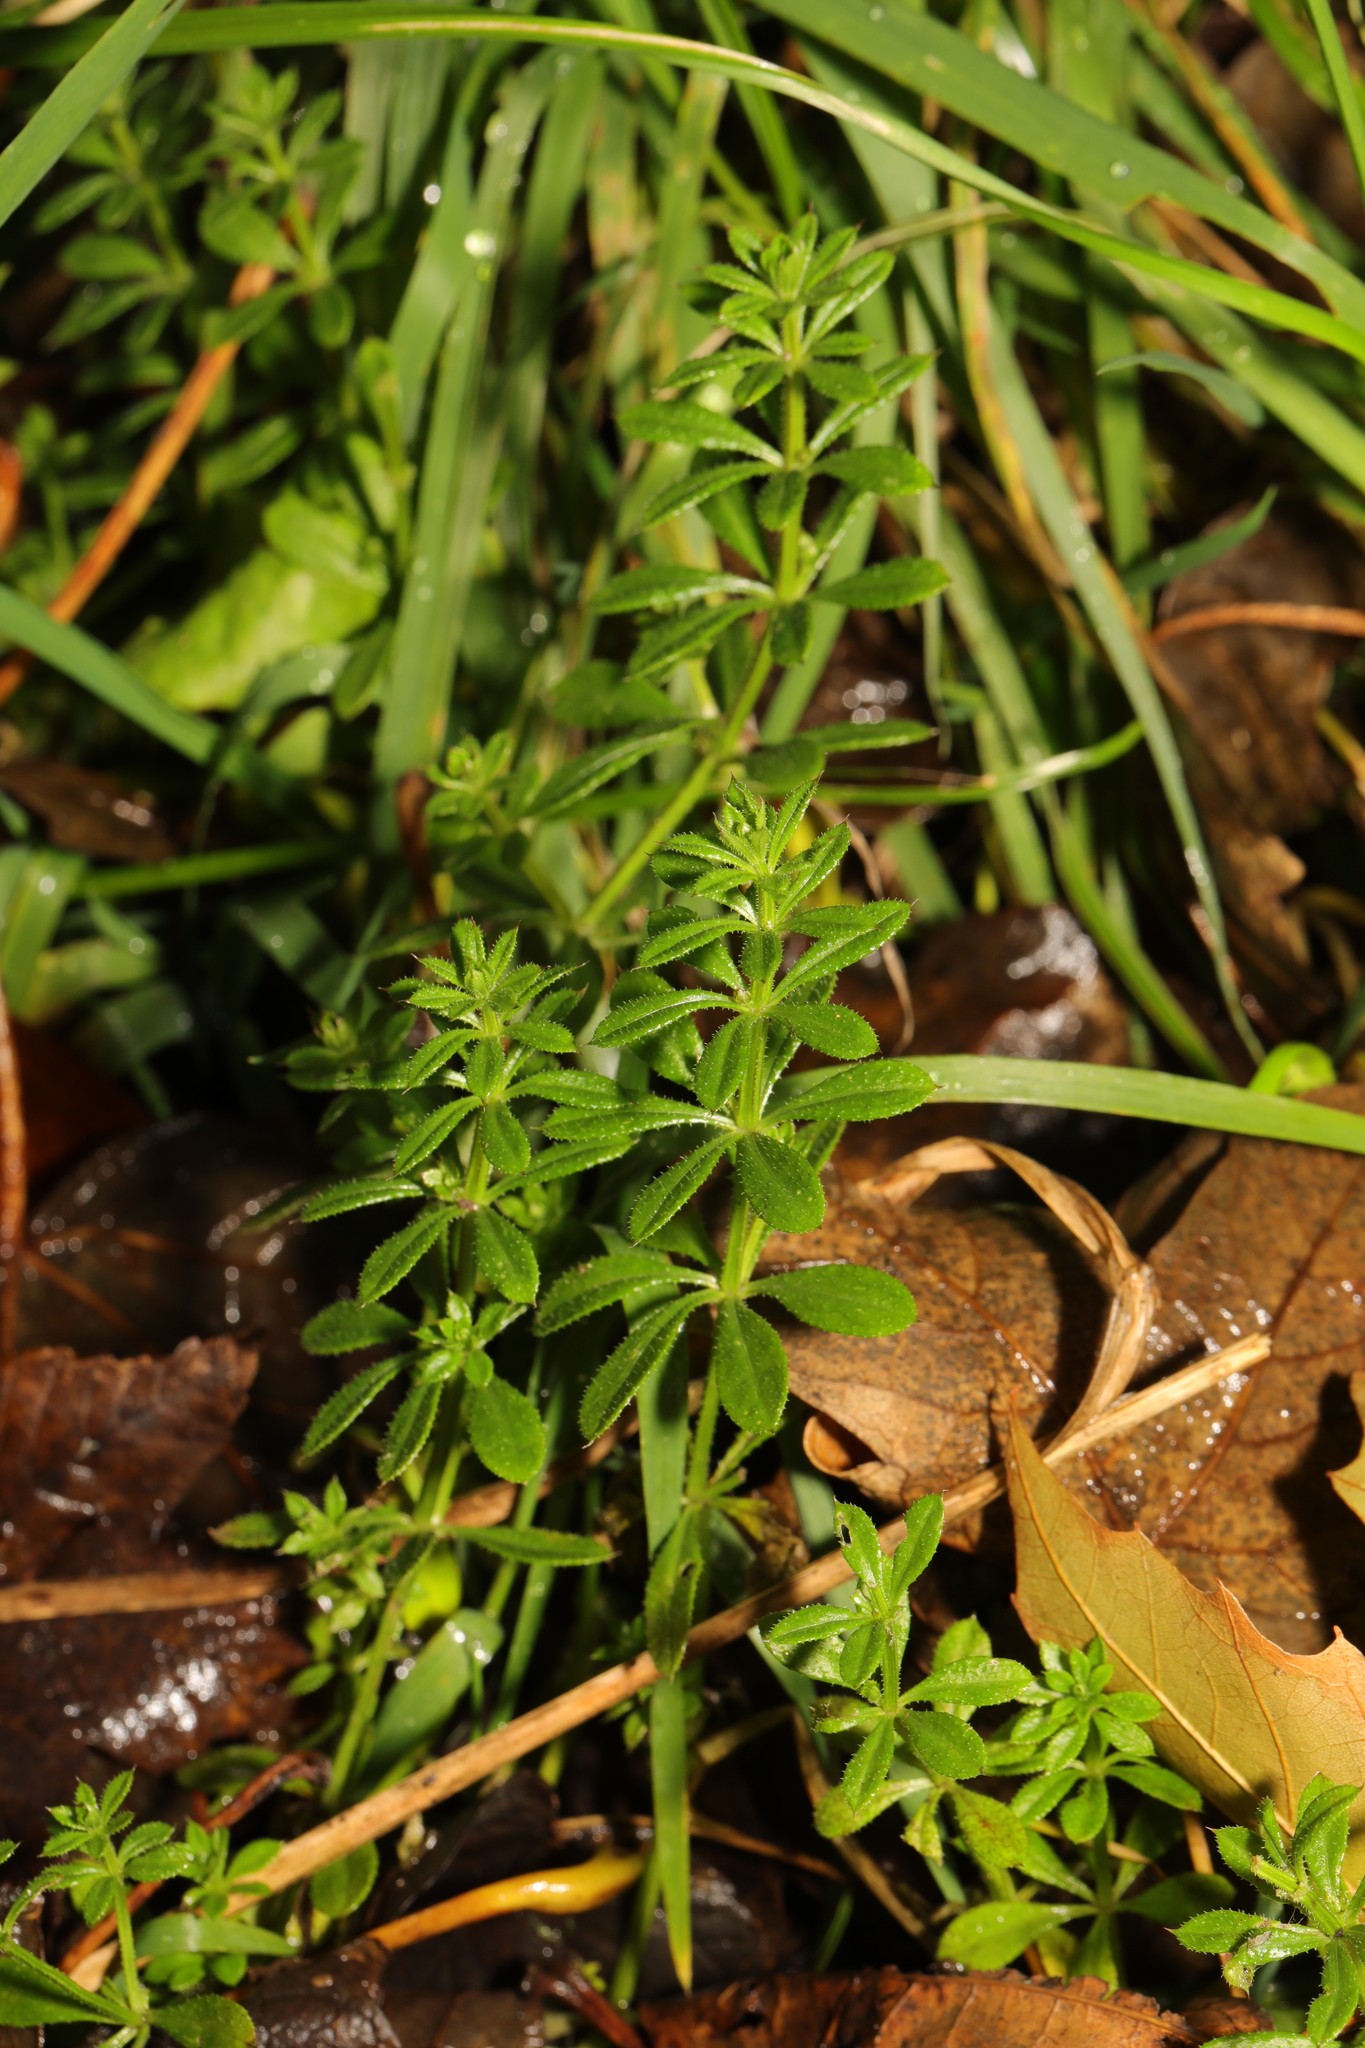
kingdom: Plantae
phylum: Tracheophyta
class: Magnoliopsida
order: Gentianales
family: Rubiaceae
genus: Galium
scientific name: Galium aparine
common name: Cleavers
